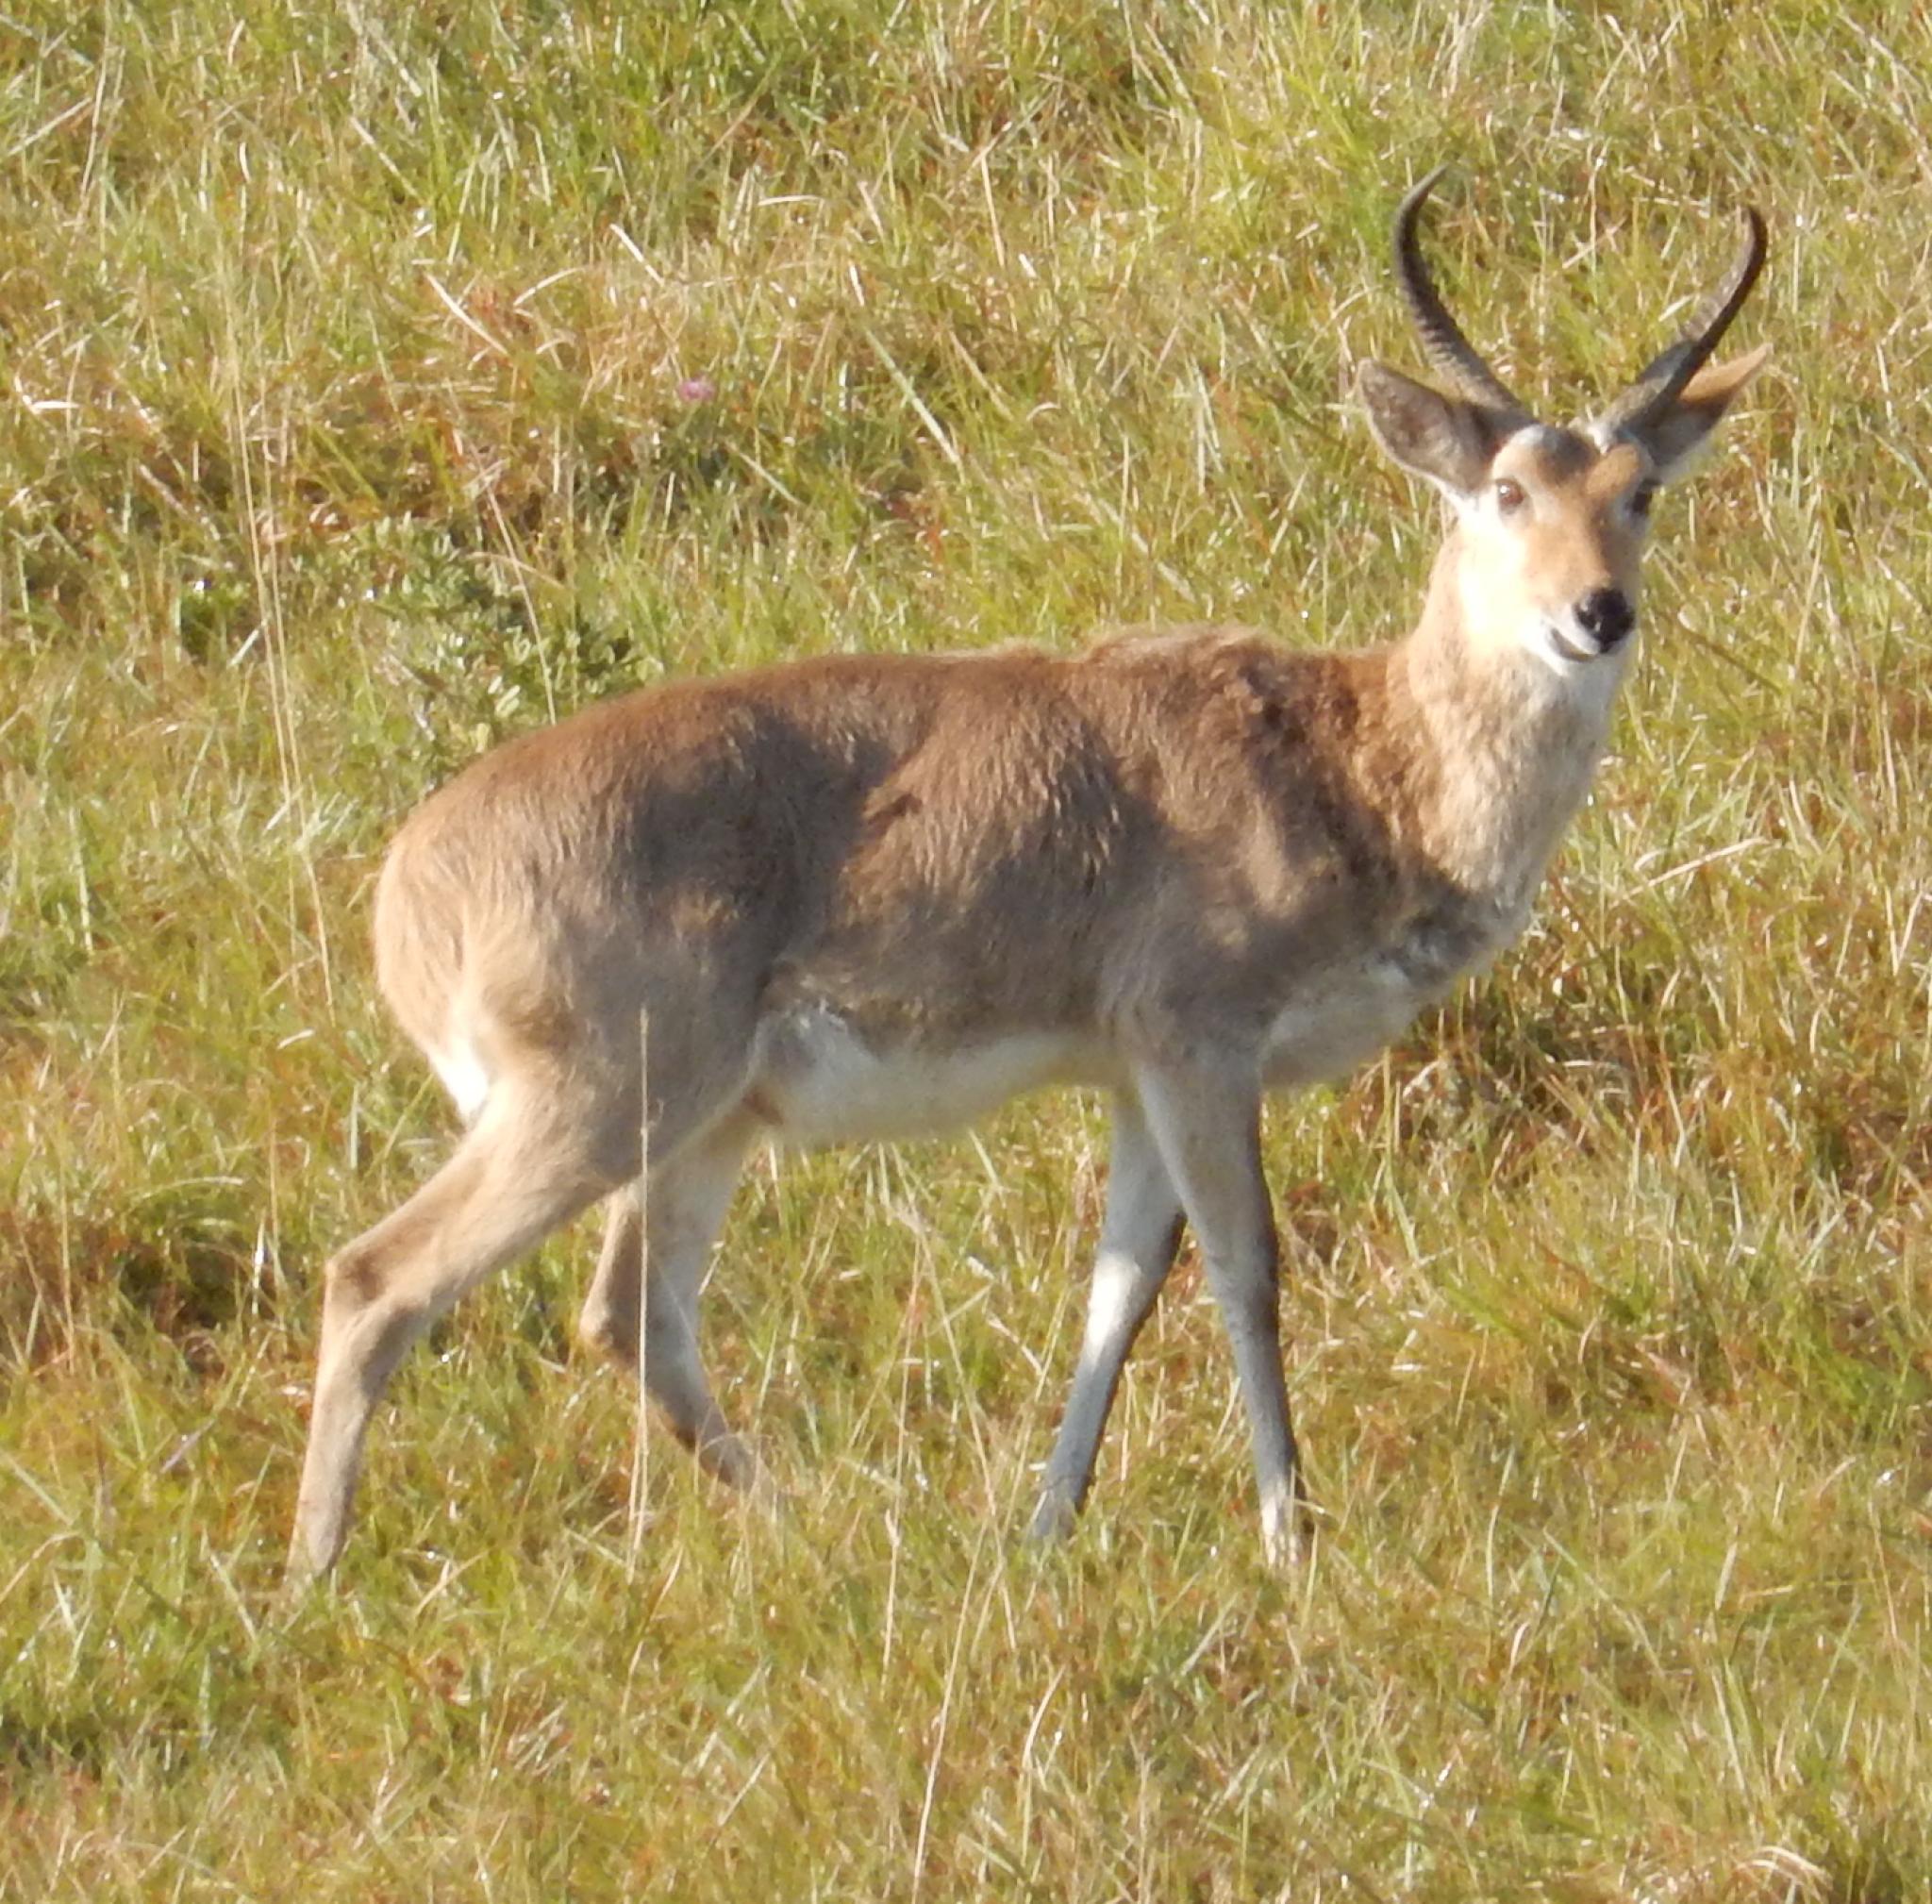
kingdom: Animalia
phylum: Chordata
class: Mammalia
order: Artiodactyla
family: Bovidae
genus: Redunca
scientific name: Redunca arundinum
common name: Southern reedbuck
